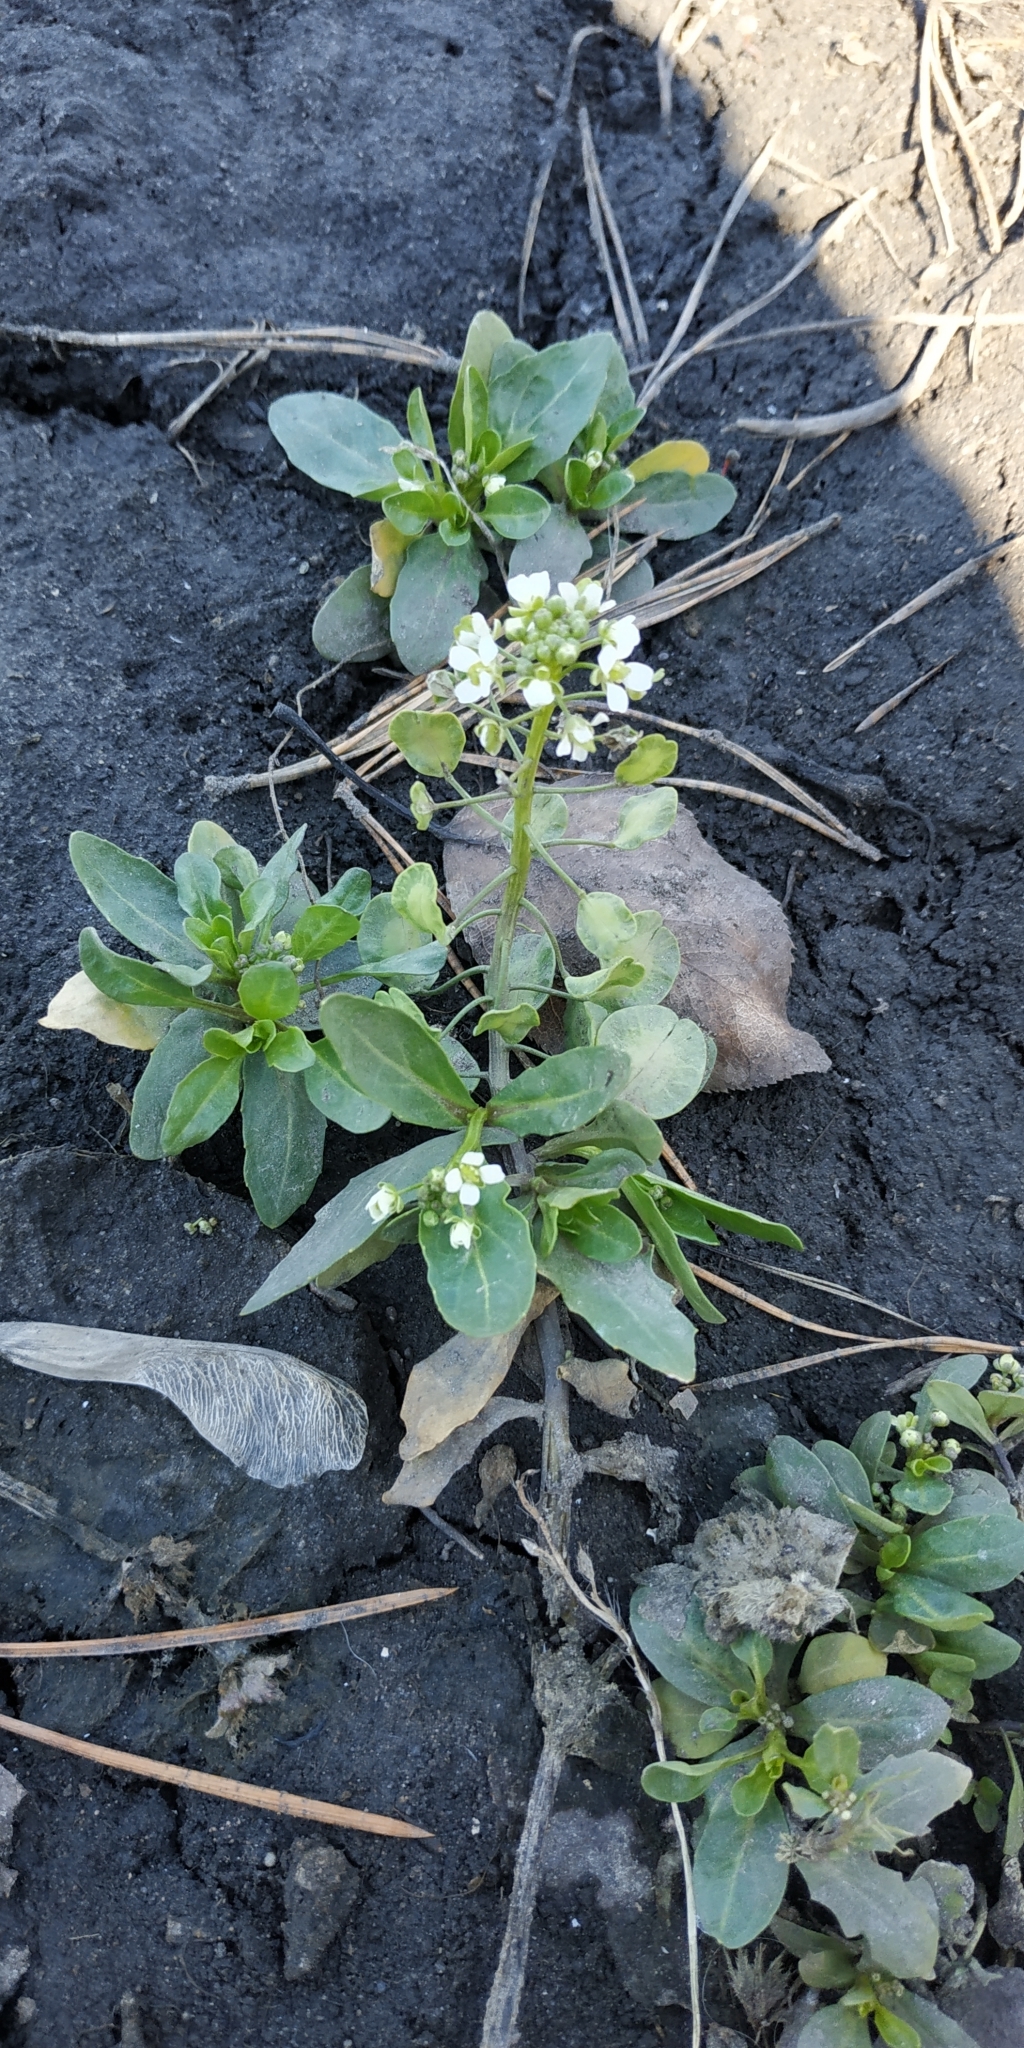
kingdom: Plantae
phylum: Tracheophyta
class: Magnoliopsida
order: Brassicales
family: Brassicaceae
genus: Thlaspi
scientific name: Thlaspi arvense
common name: Field pennycress
